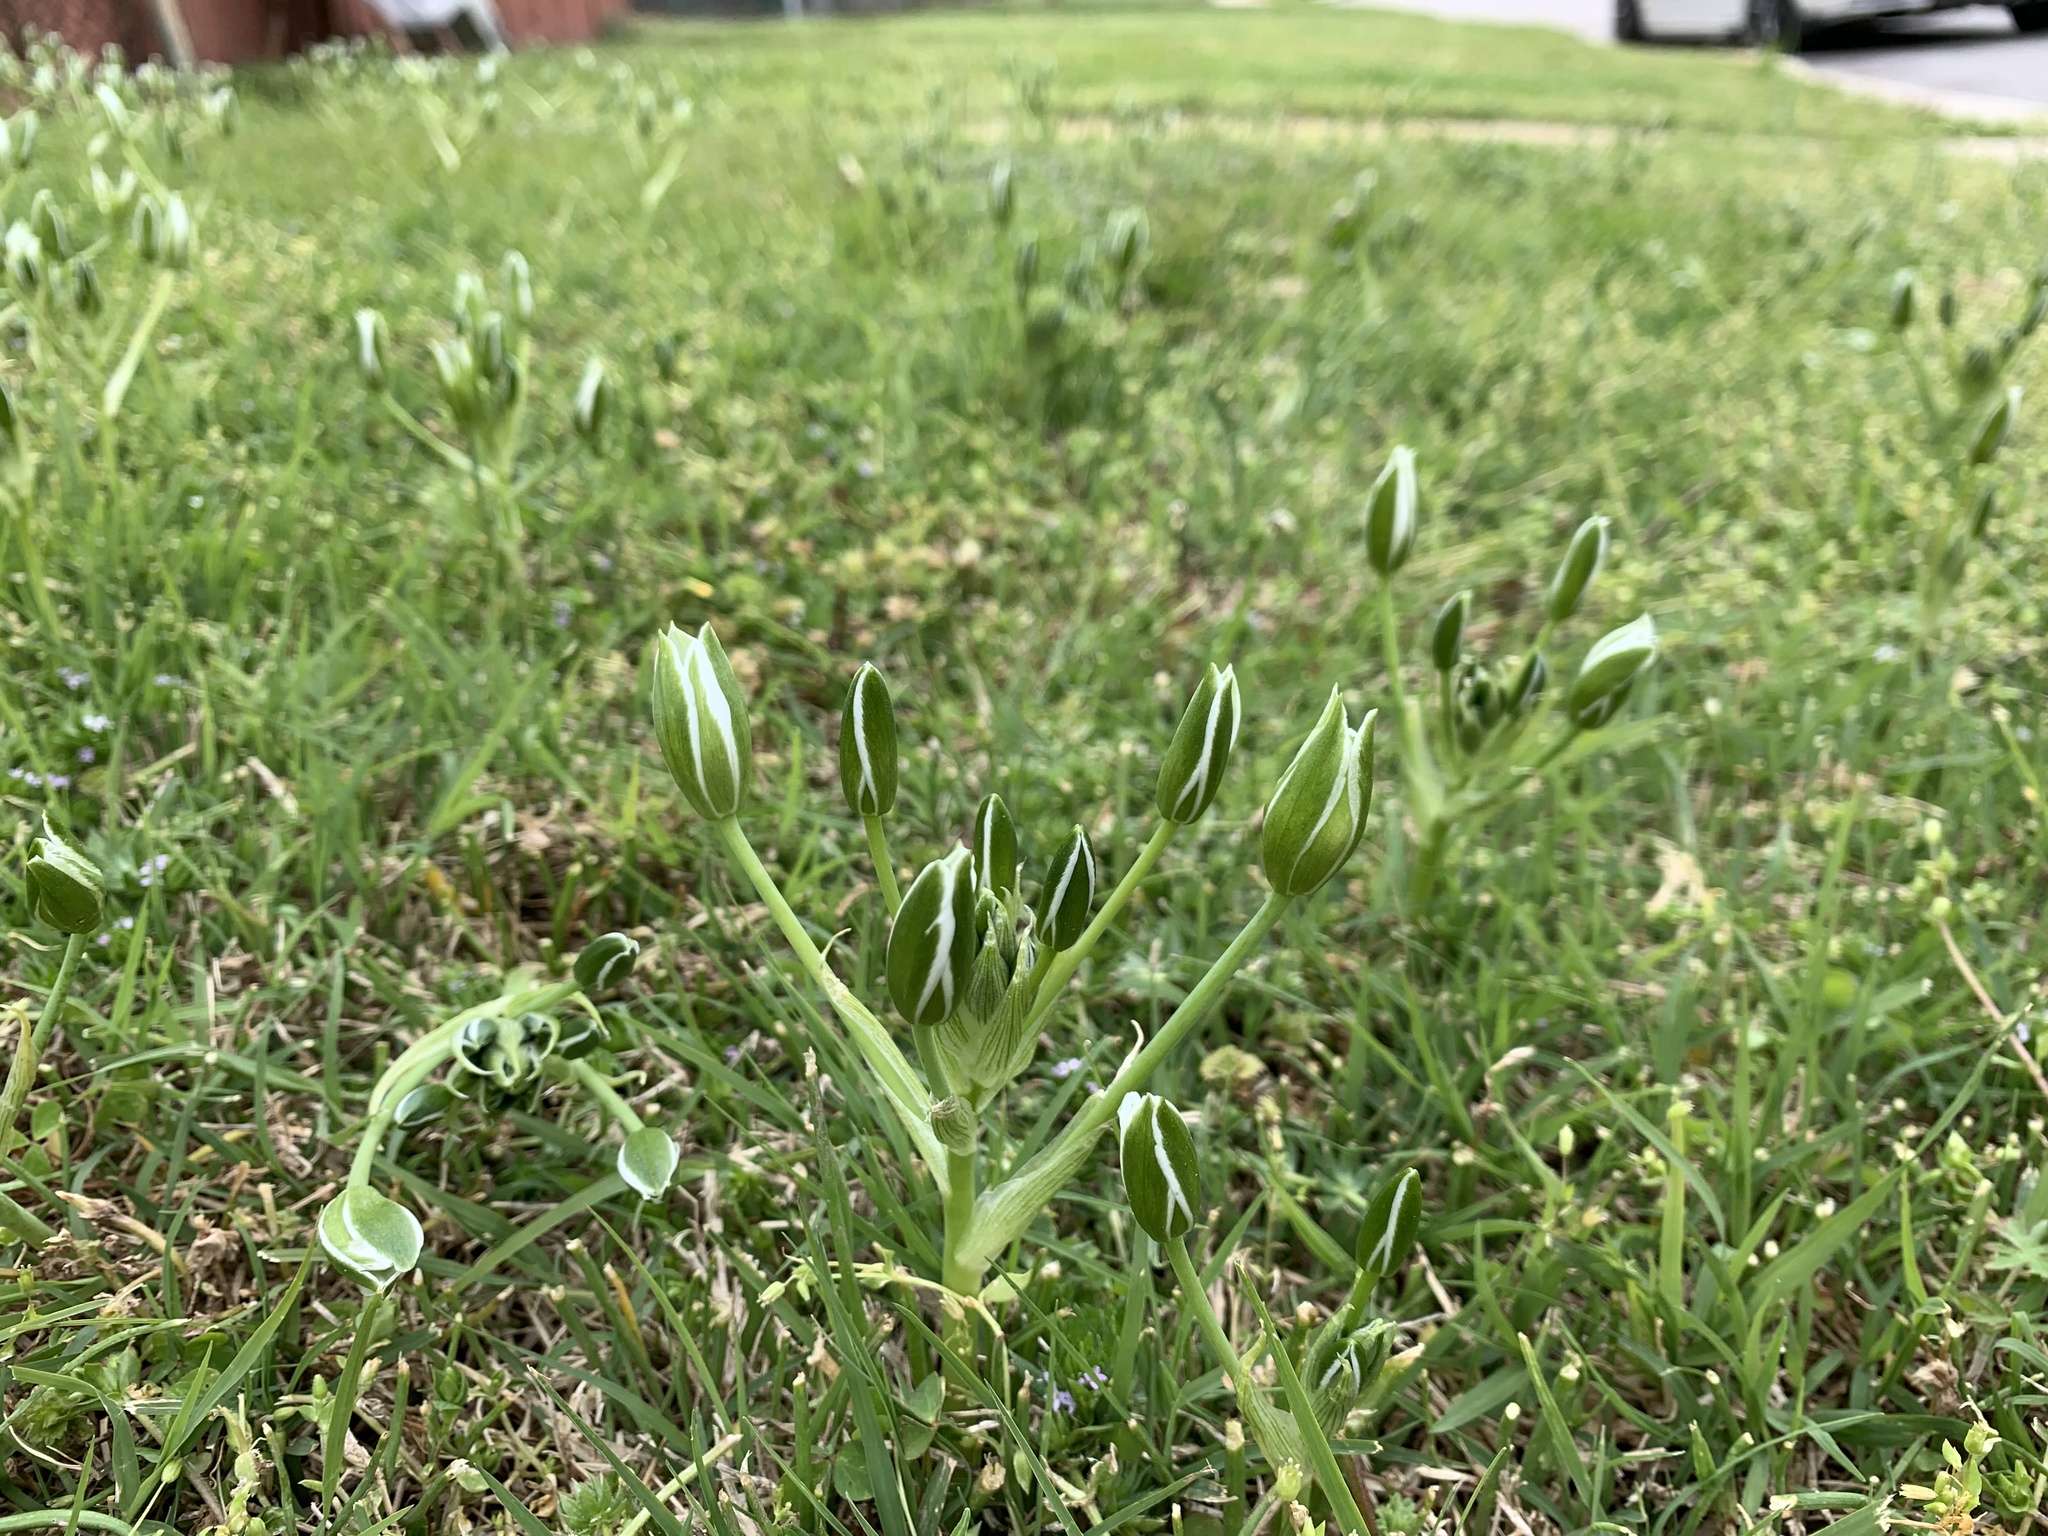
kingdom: Plantae
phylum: Tracheophyta
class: Liliopsida
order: Asparagales
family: Asparagaceae
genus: Ornithogalum
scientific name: Ornithogalum umbellatum
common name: Garden star-of-bethlehem
